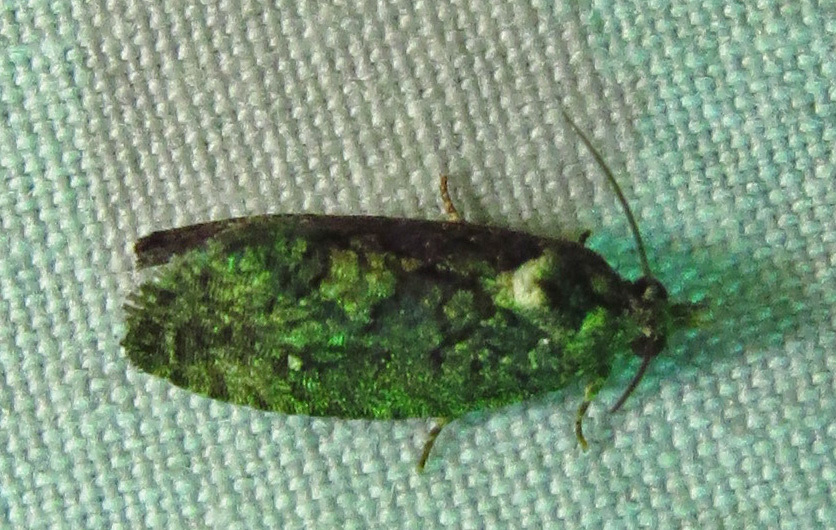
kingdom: Animalia
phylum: Arthropoda
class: Insecta
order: Lepidoptera
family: Tortricidae
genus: Gymnandrosoma
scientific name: Gymnandrosoma punctidiscanum
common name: Dotted ecdytolopha moth
